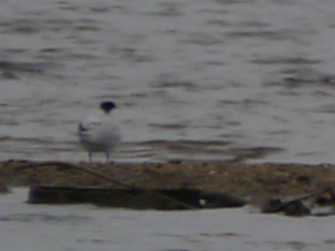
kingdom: Animalia
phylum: Chordata
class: Aves
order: Charadriiformes
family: Laridae
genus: Hydroprogne
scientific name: Hydroprogne caspia
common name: Caspian tern
